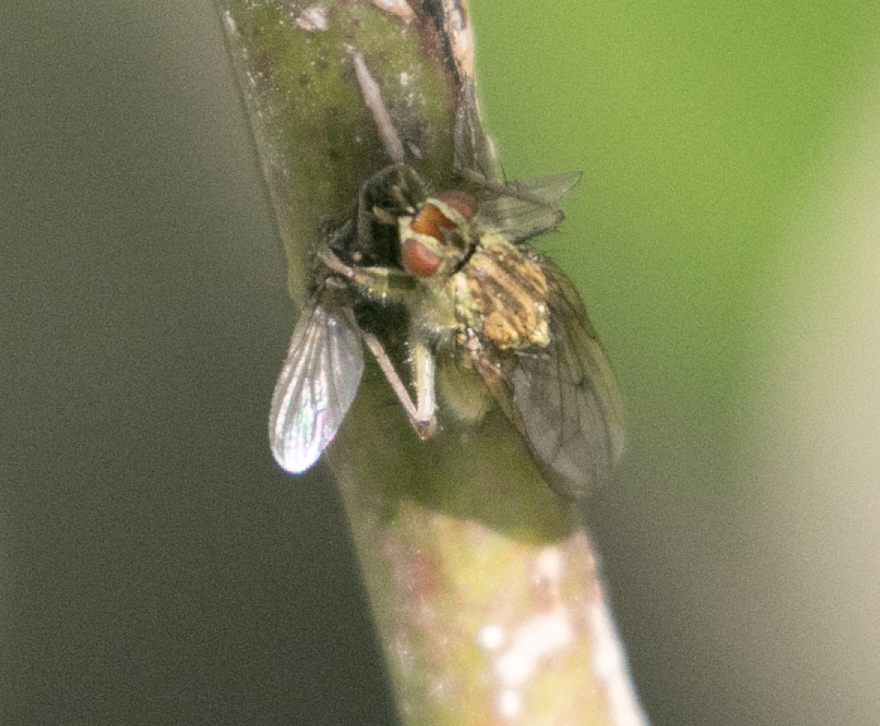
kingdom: Animalia
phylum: Arthropoda
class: Insecta
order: Diptera
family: Scathophagidae
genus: Scathophaga
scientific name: Scathophaga stercoraria
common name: Yellow dung fly
